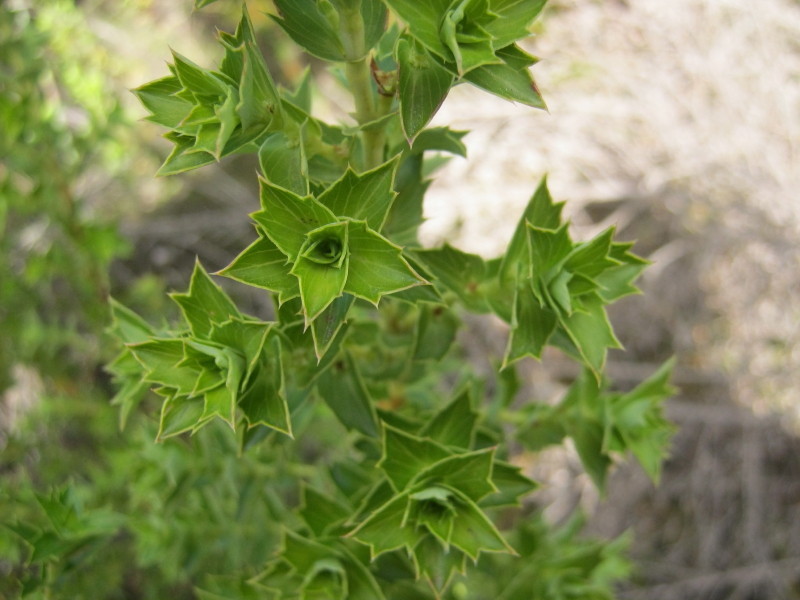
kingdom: Plantae
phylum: Tracheophyta
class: Magnoliopsida
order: Rosales
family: Rosaceae
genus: Cliffortia
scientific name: Cliffortia ilicifolia
